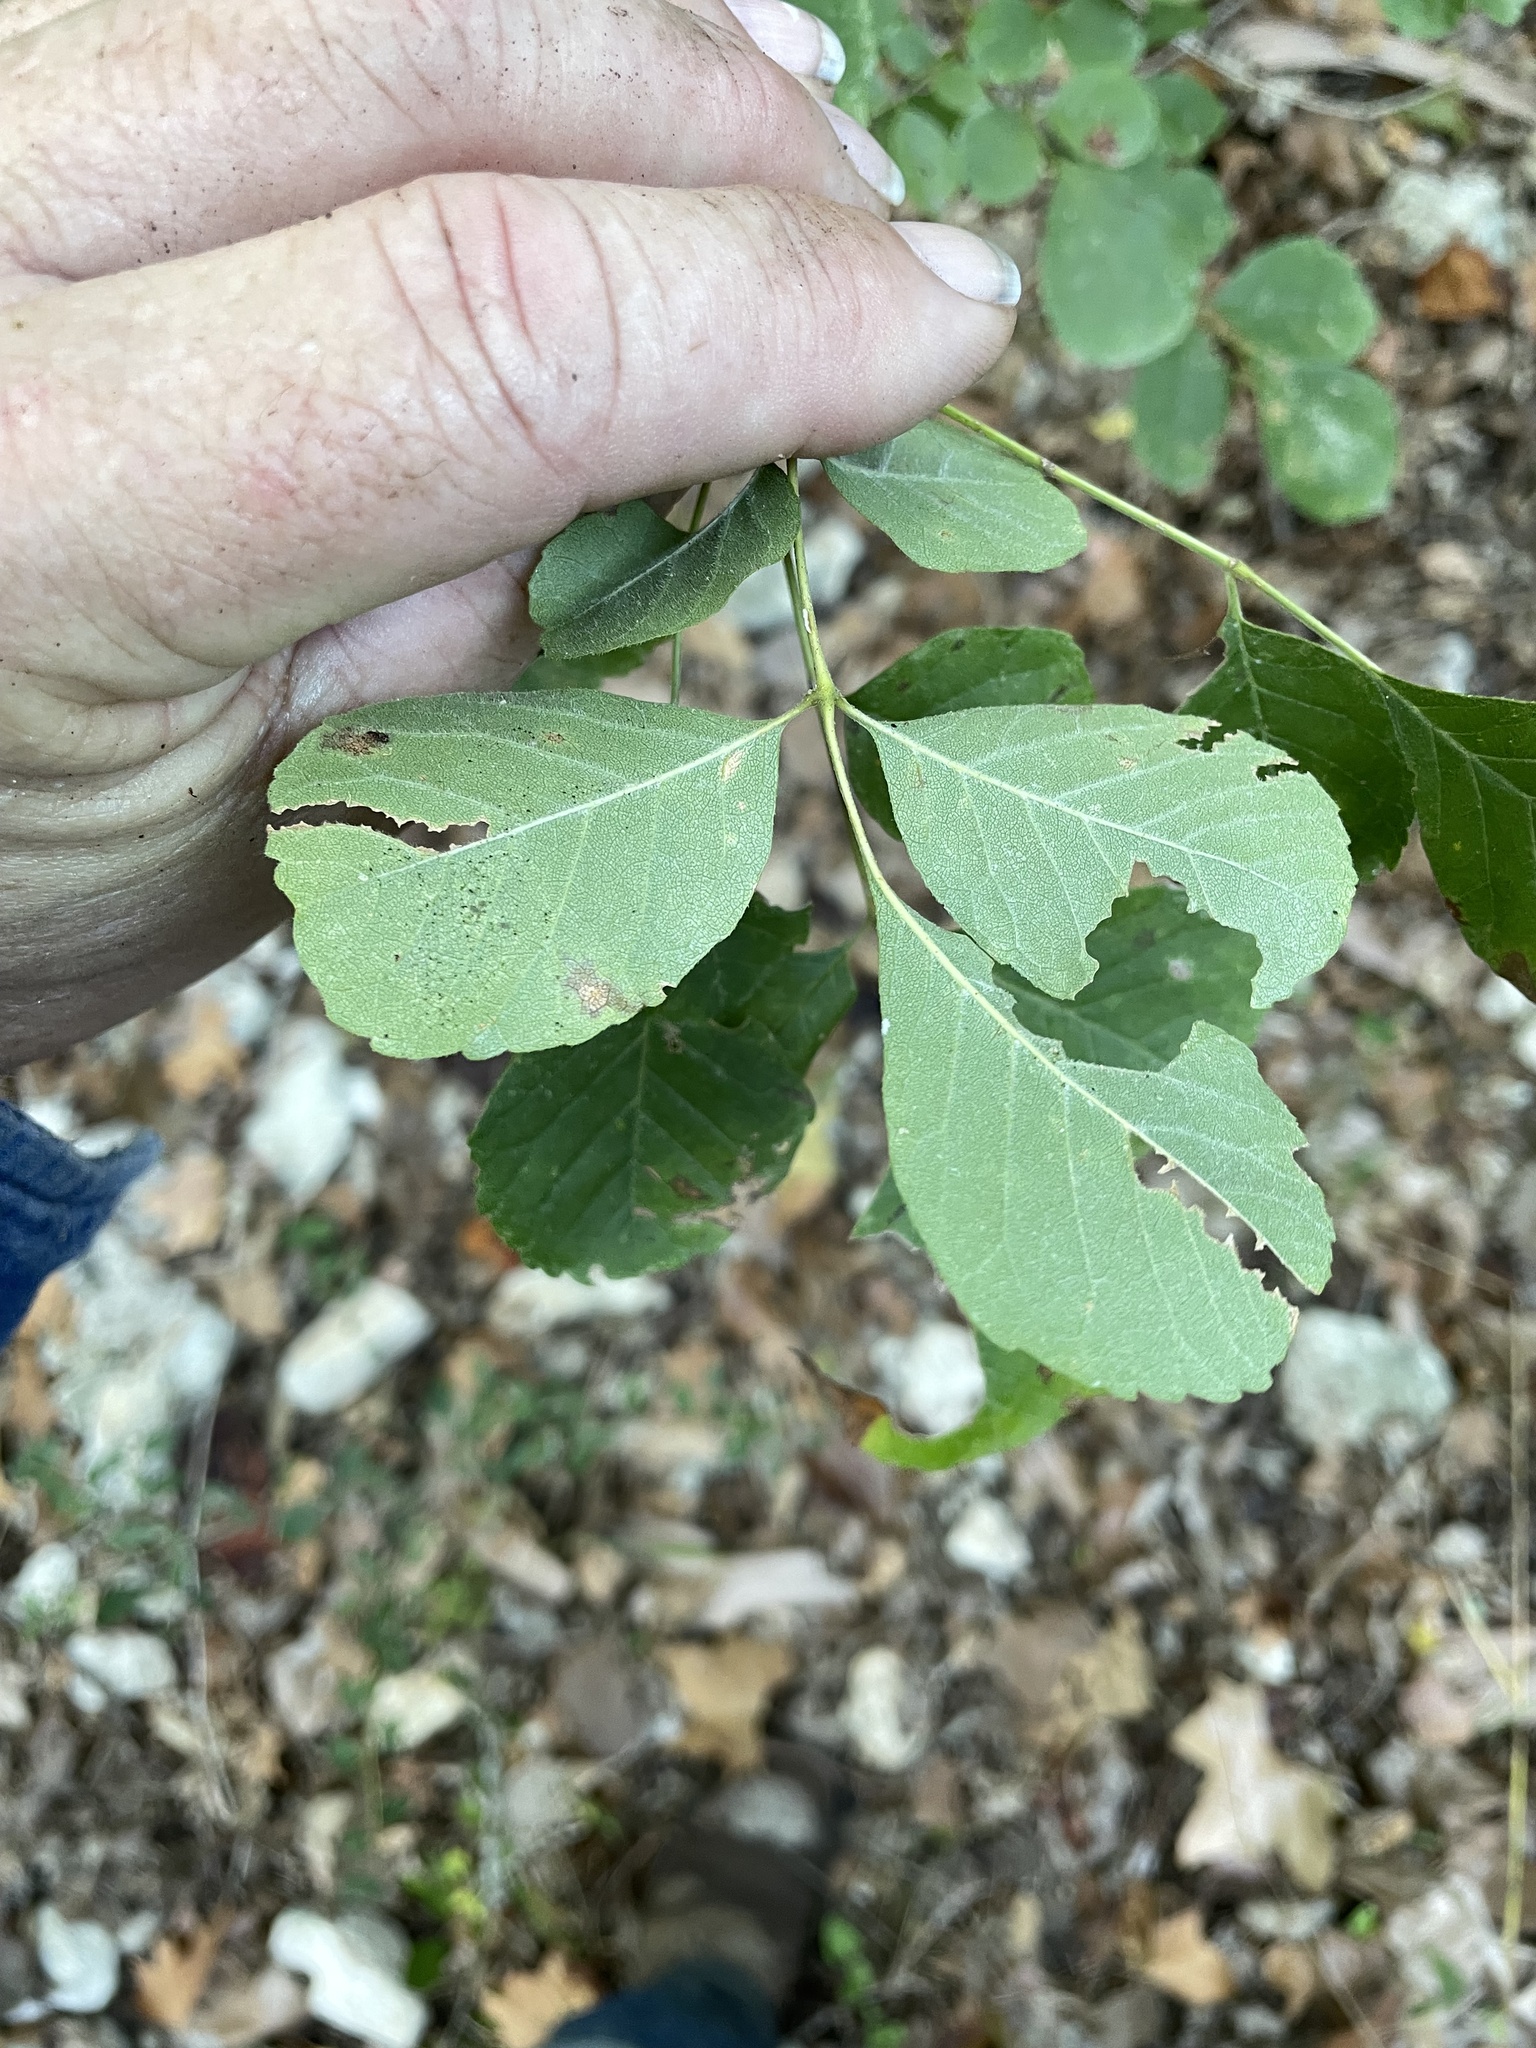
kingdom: Plantae
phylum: Tracheophyta
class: Magnoliopsida
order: Lamiales
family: Oleaceae
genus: Fraxinus
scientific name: Fraxinus albicans
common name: Texas ash
